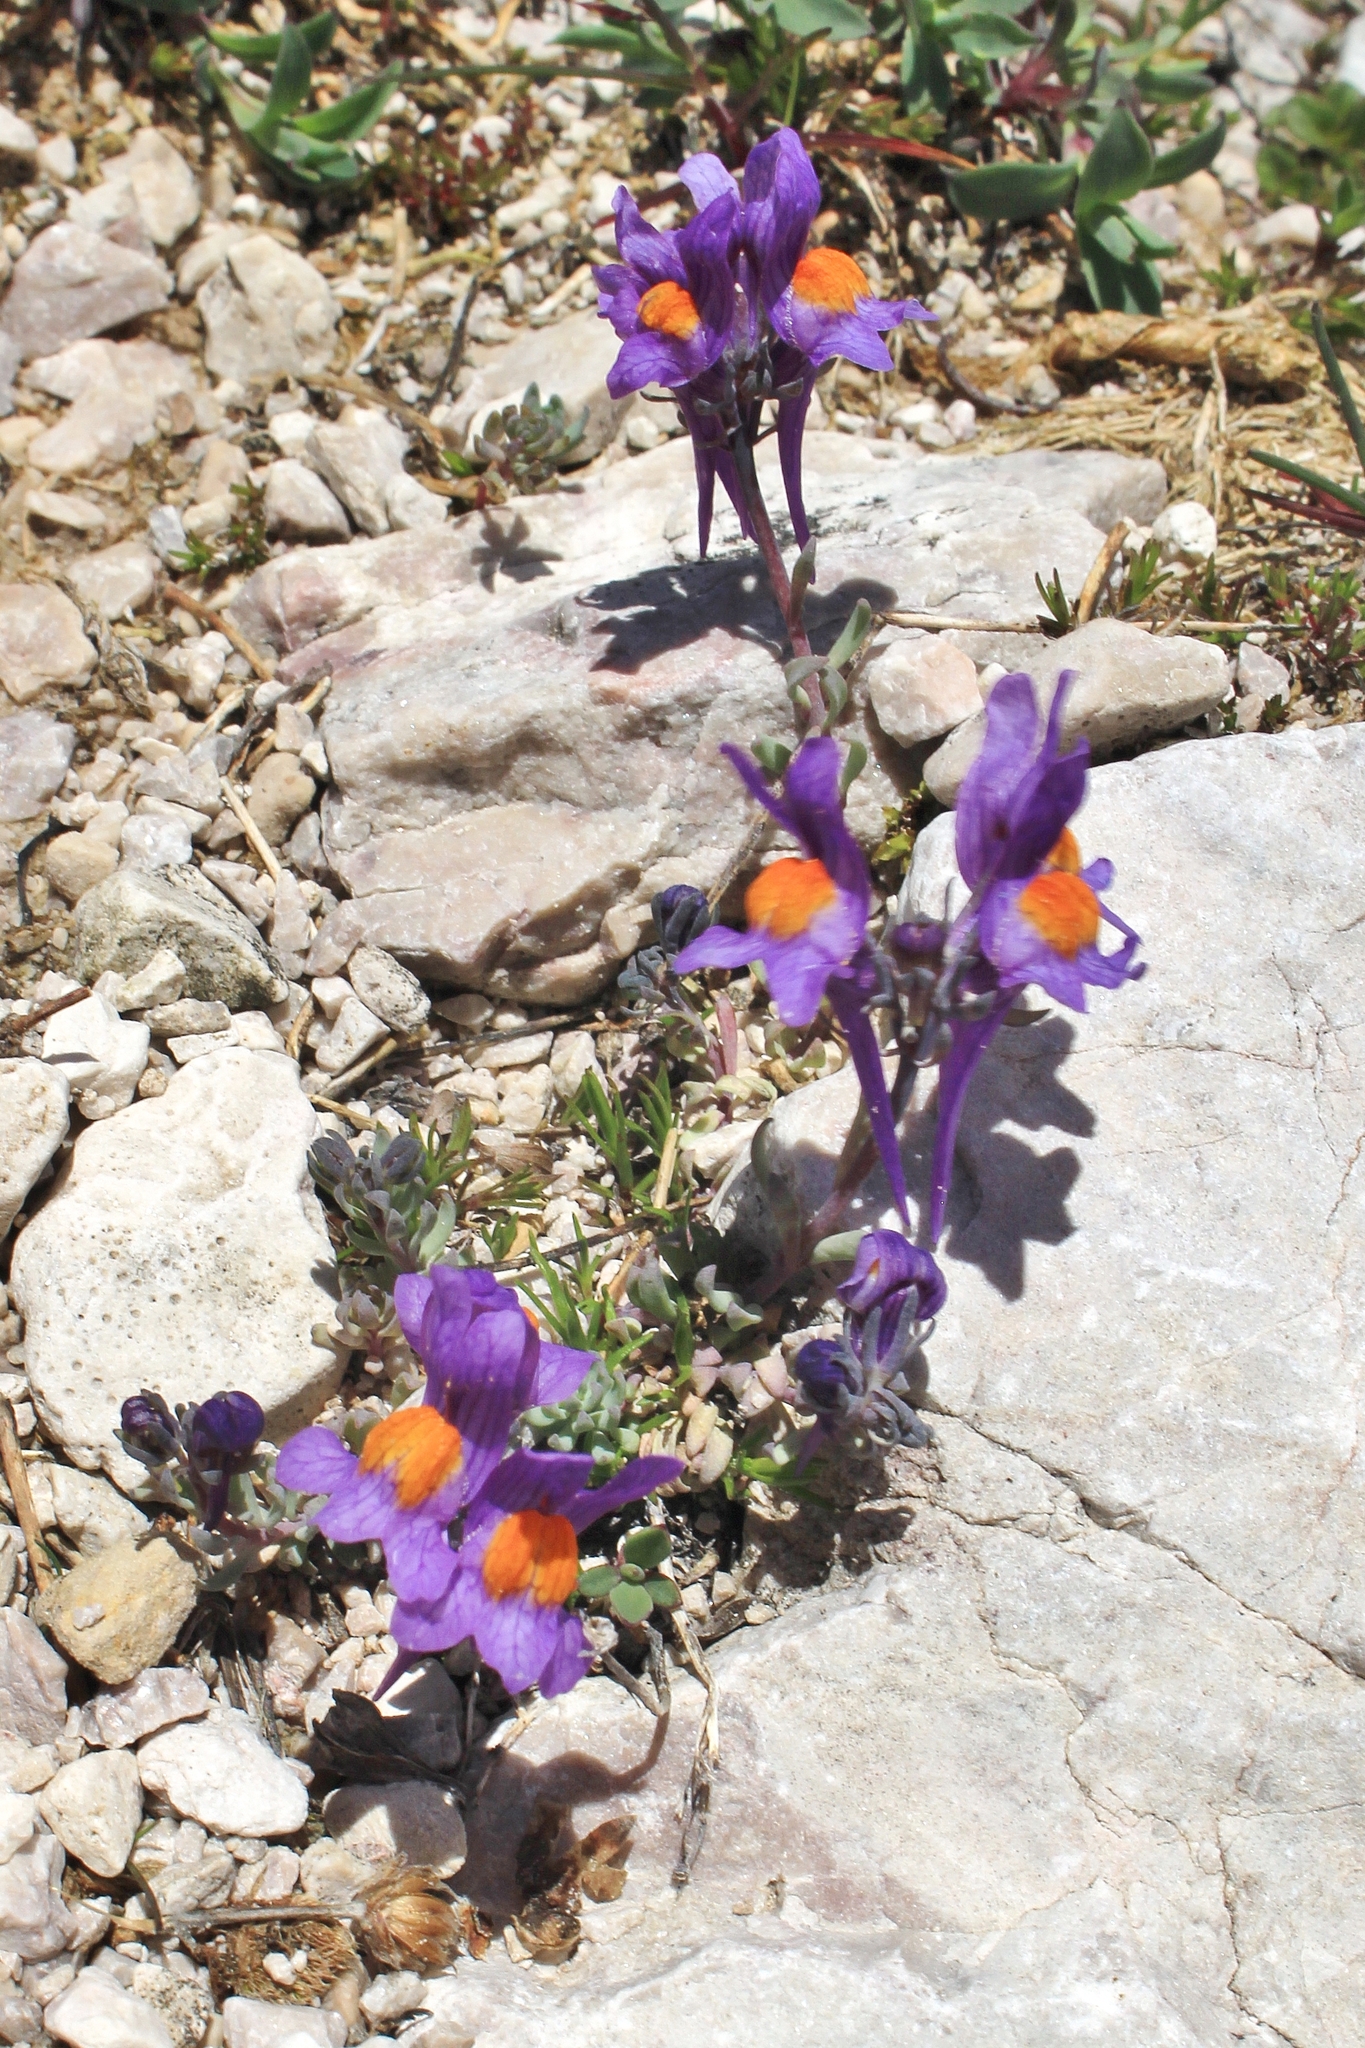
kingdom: Plantae
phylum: Tracheophyta
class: Magnoliopsida
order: Lamiales
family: Plantaginaceae
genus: Linaria
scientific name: Linaria alpina
